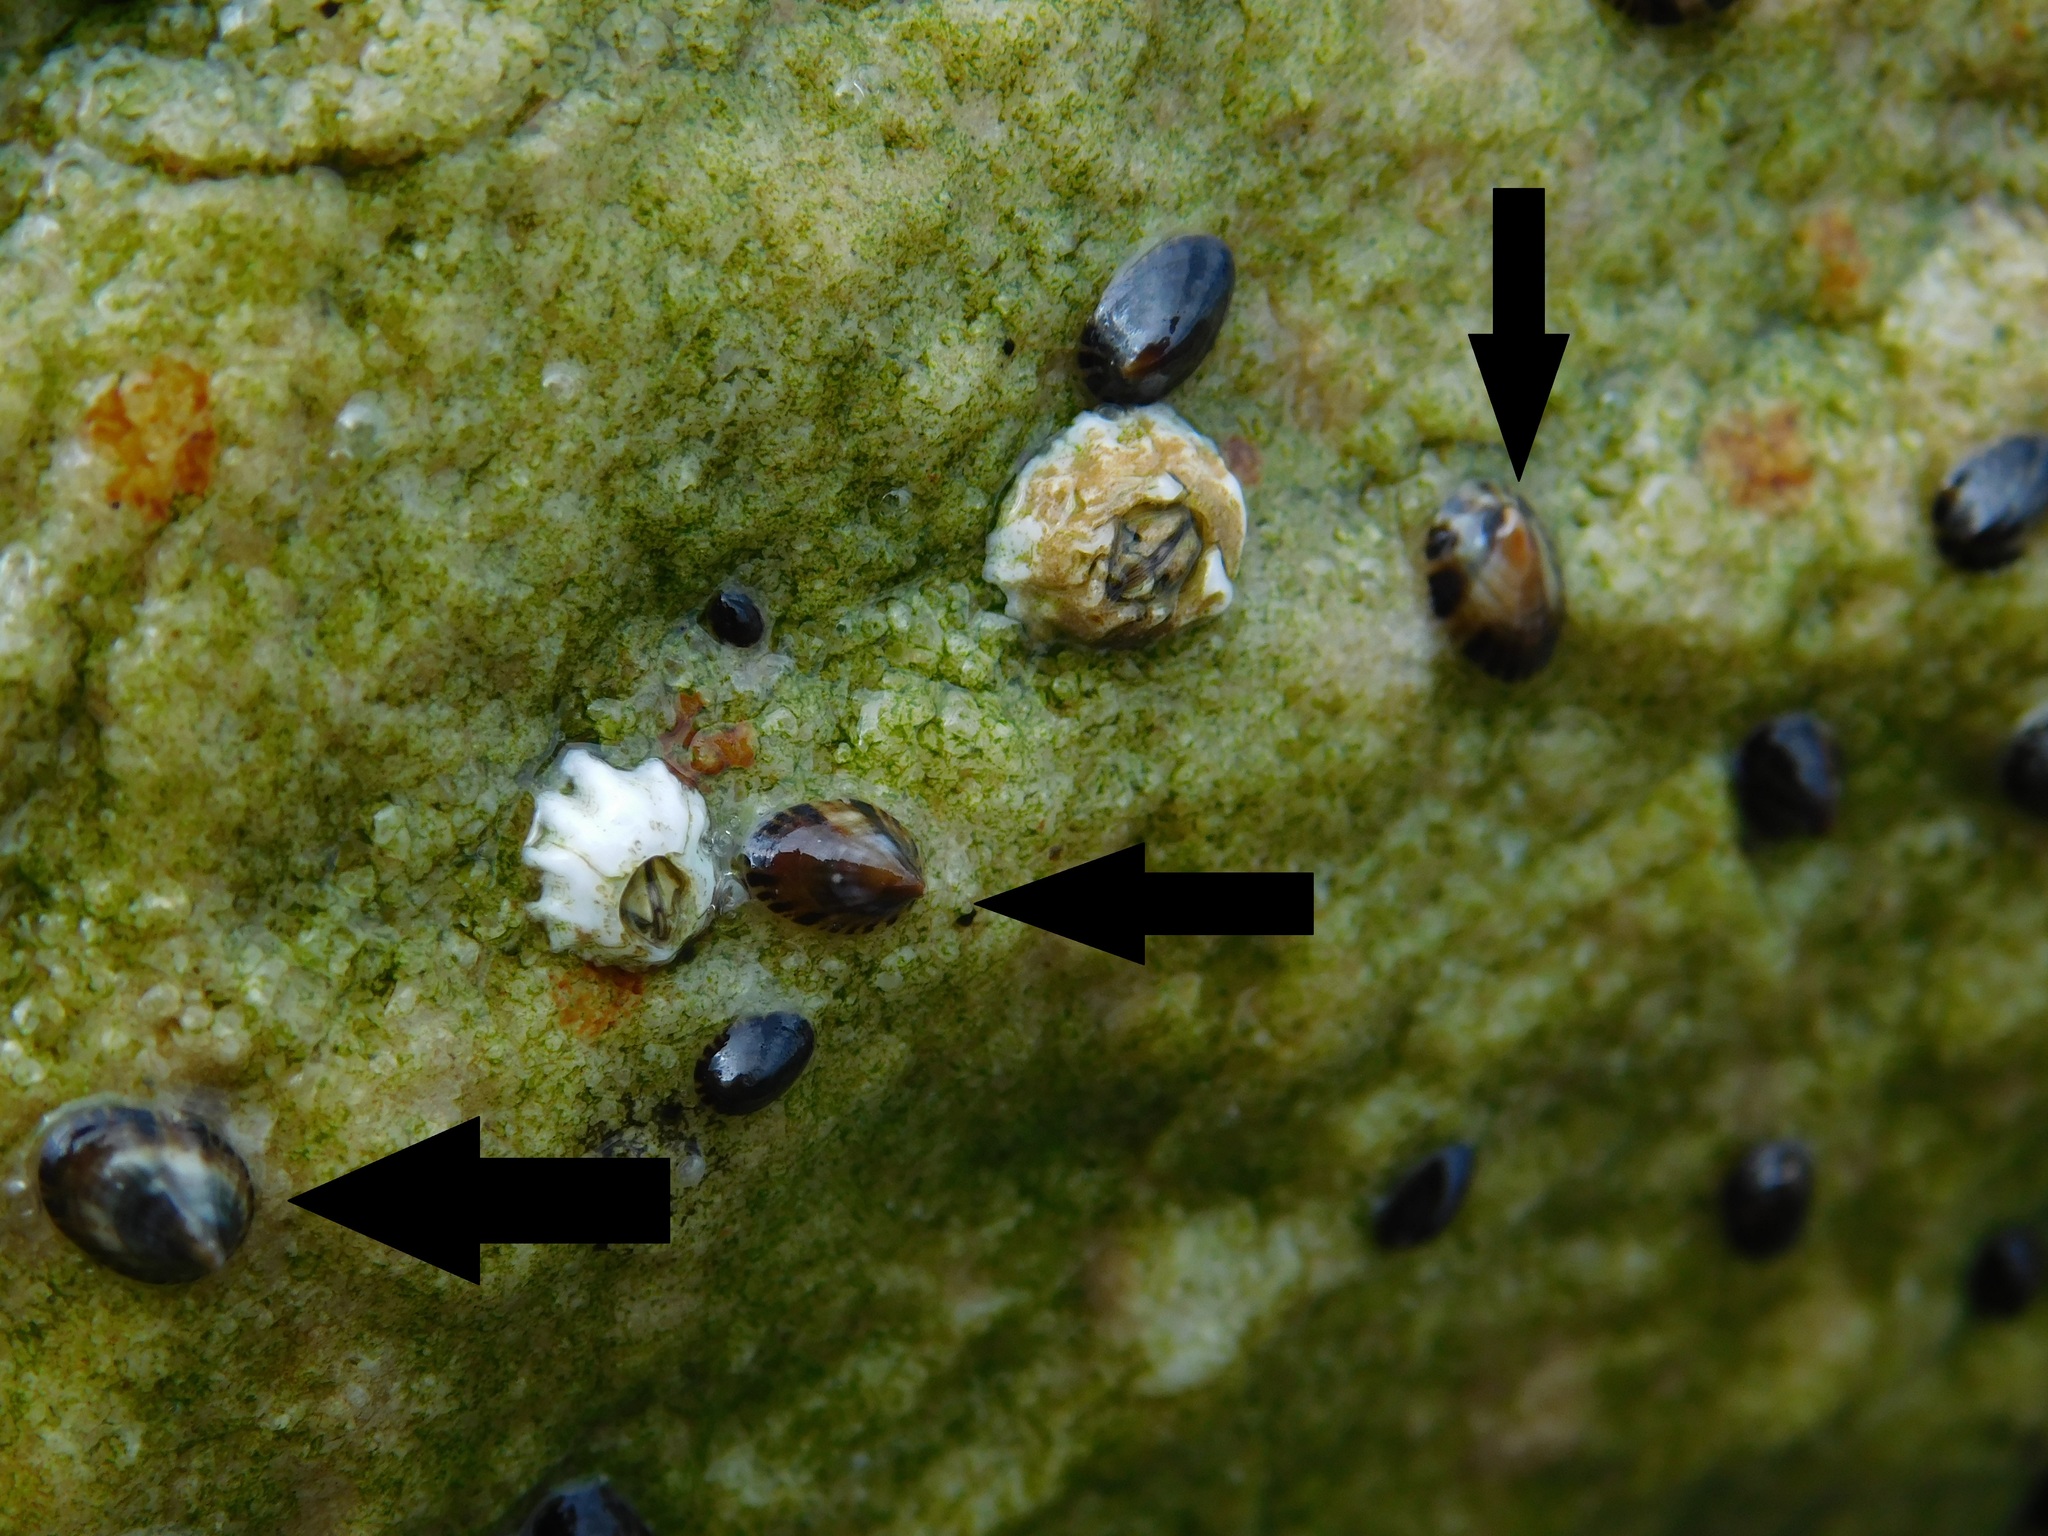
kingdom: Animalia
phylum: Mollusca
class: Gastropoda
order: Siphonariida
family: Siphonariidae
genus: Siphonaria
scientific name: Siphonaria lessonii
